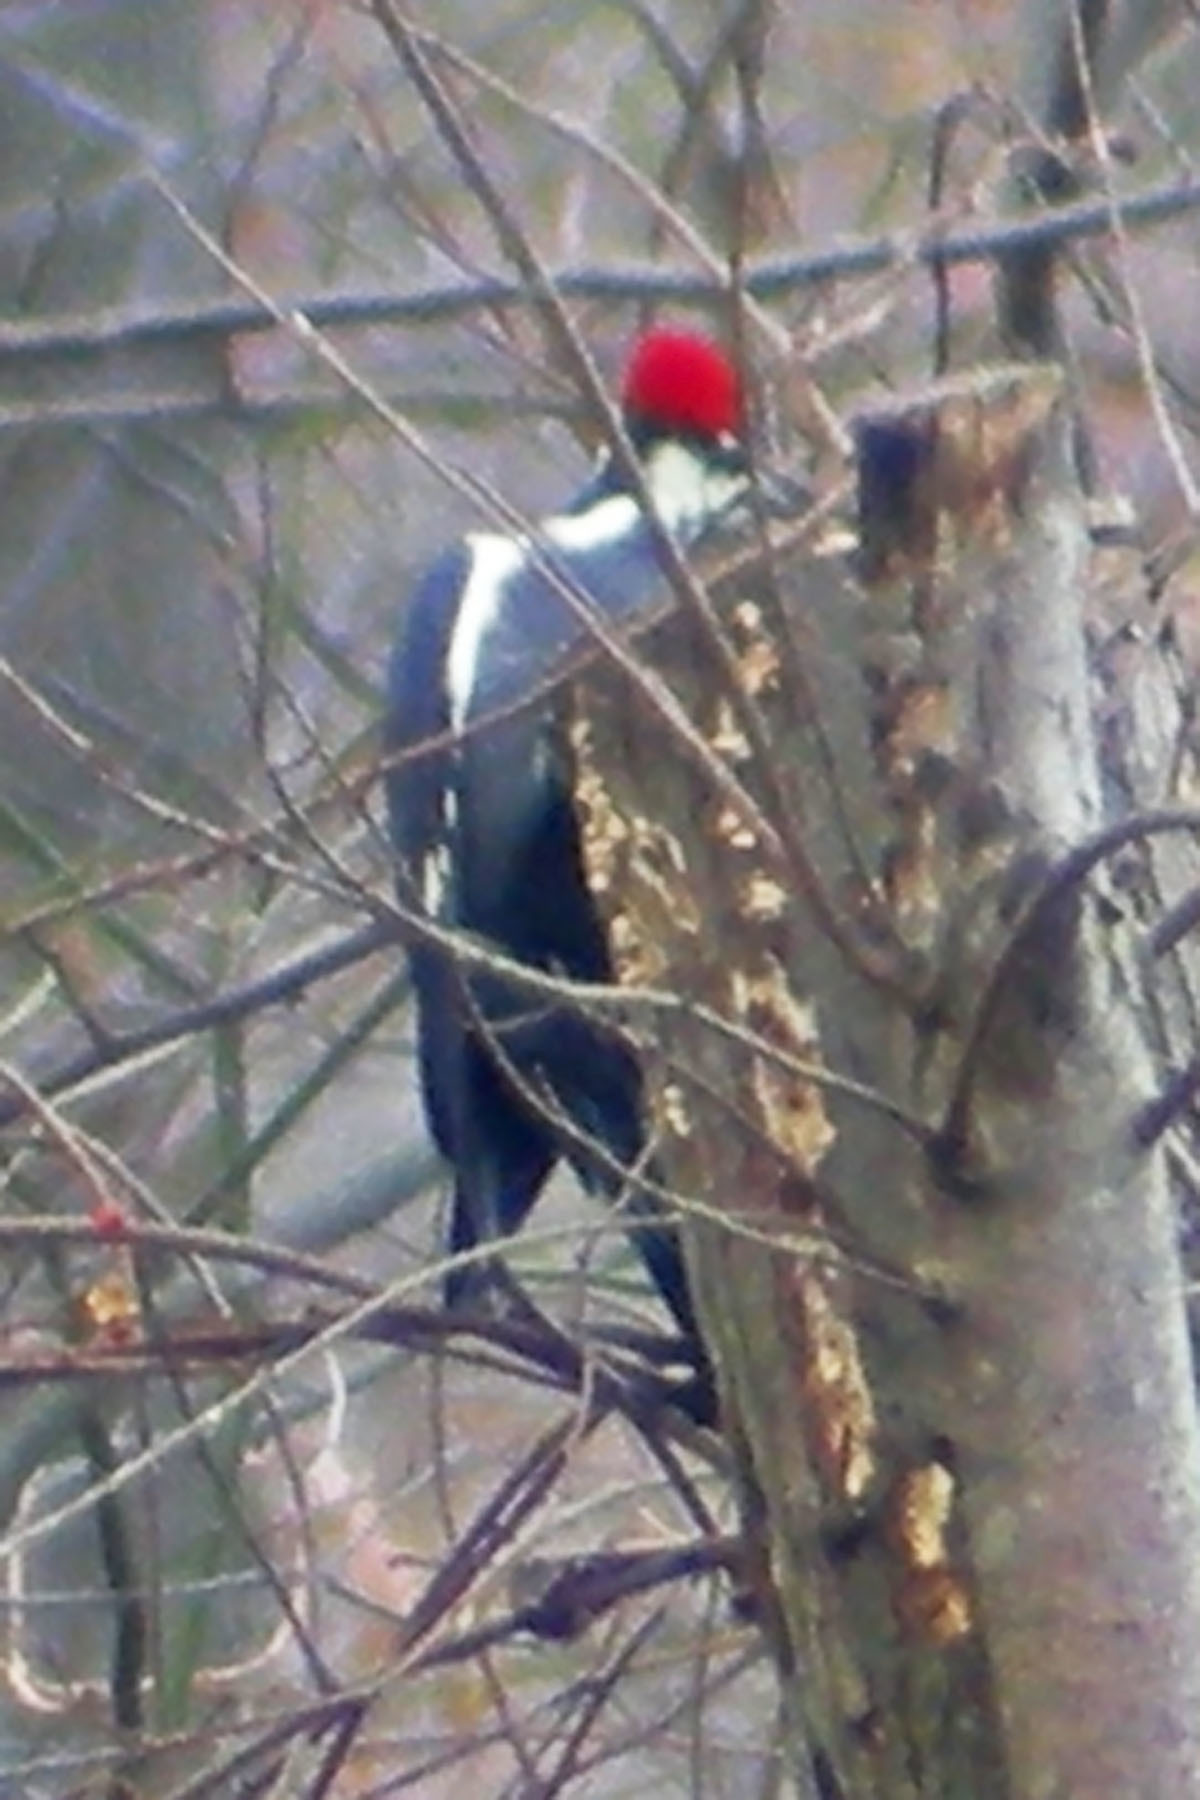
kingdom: Animalia
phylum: Chordata
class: Aves
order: Piciformes
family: Picidae
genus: Dryocopus
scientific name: Dryocopus pileatus
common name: Pileated woodpecker
